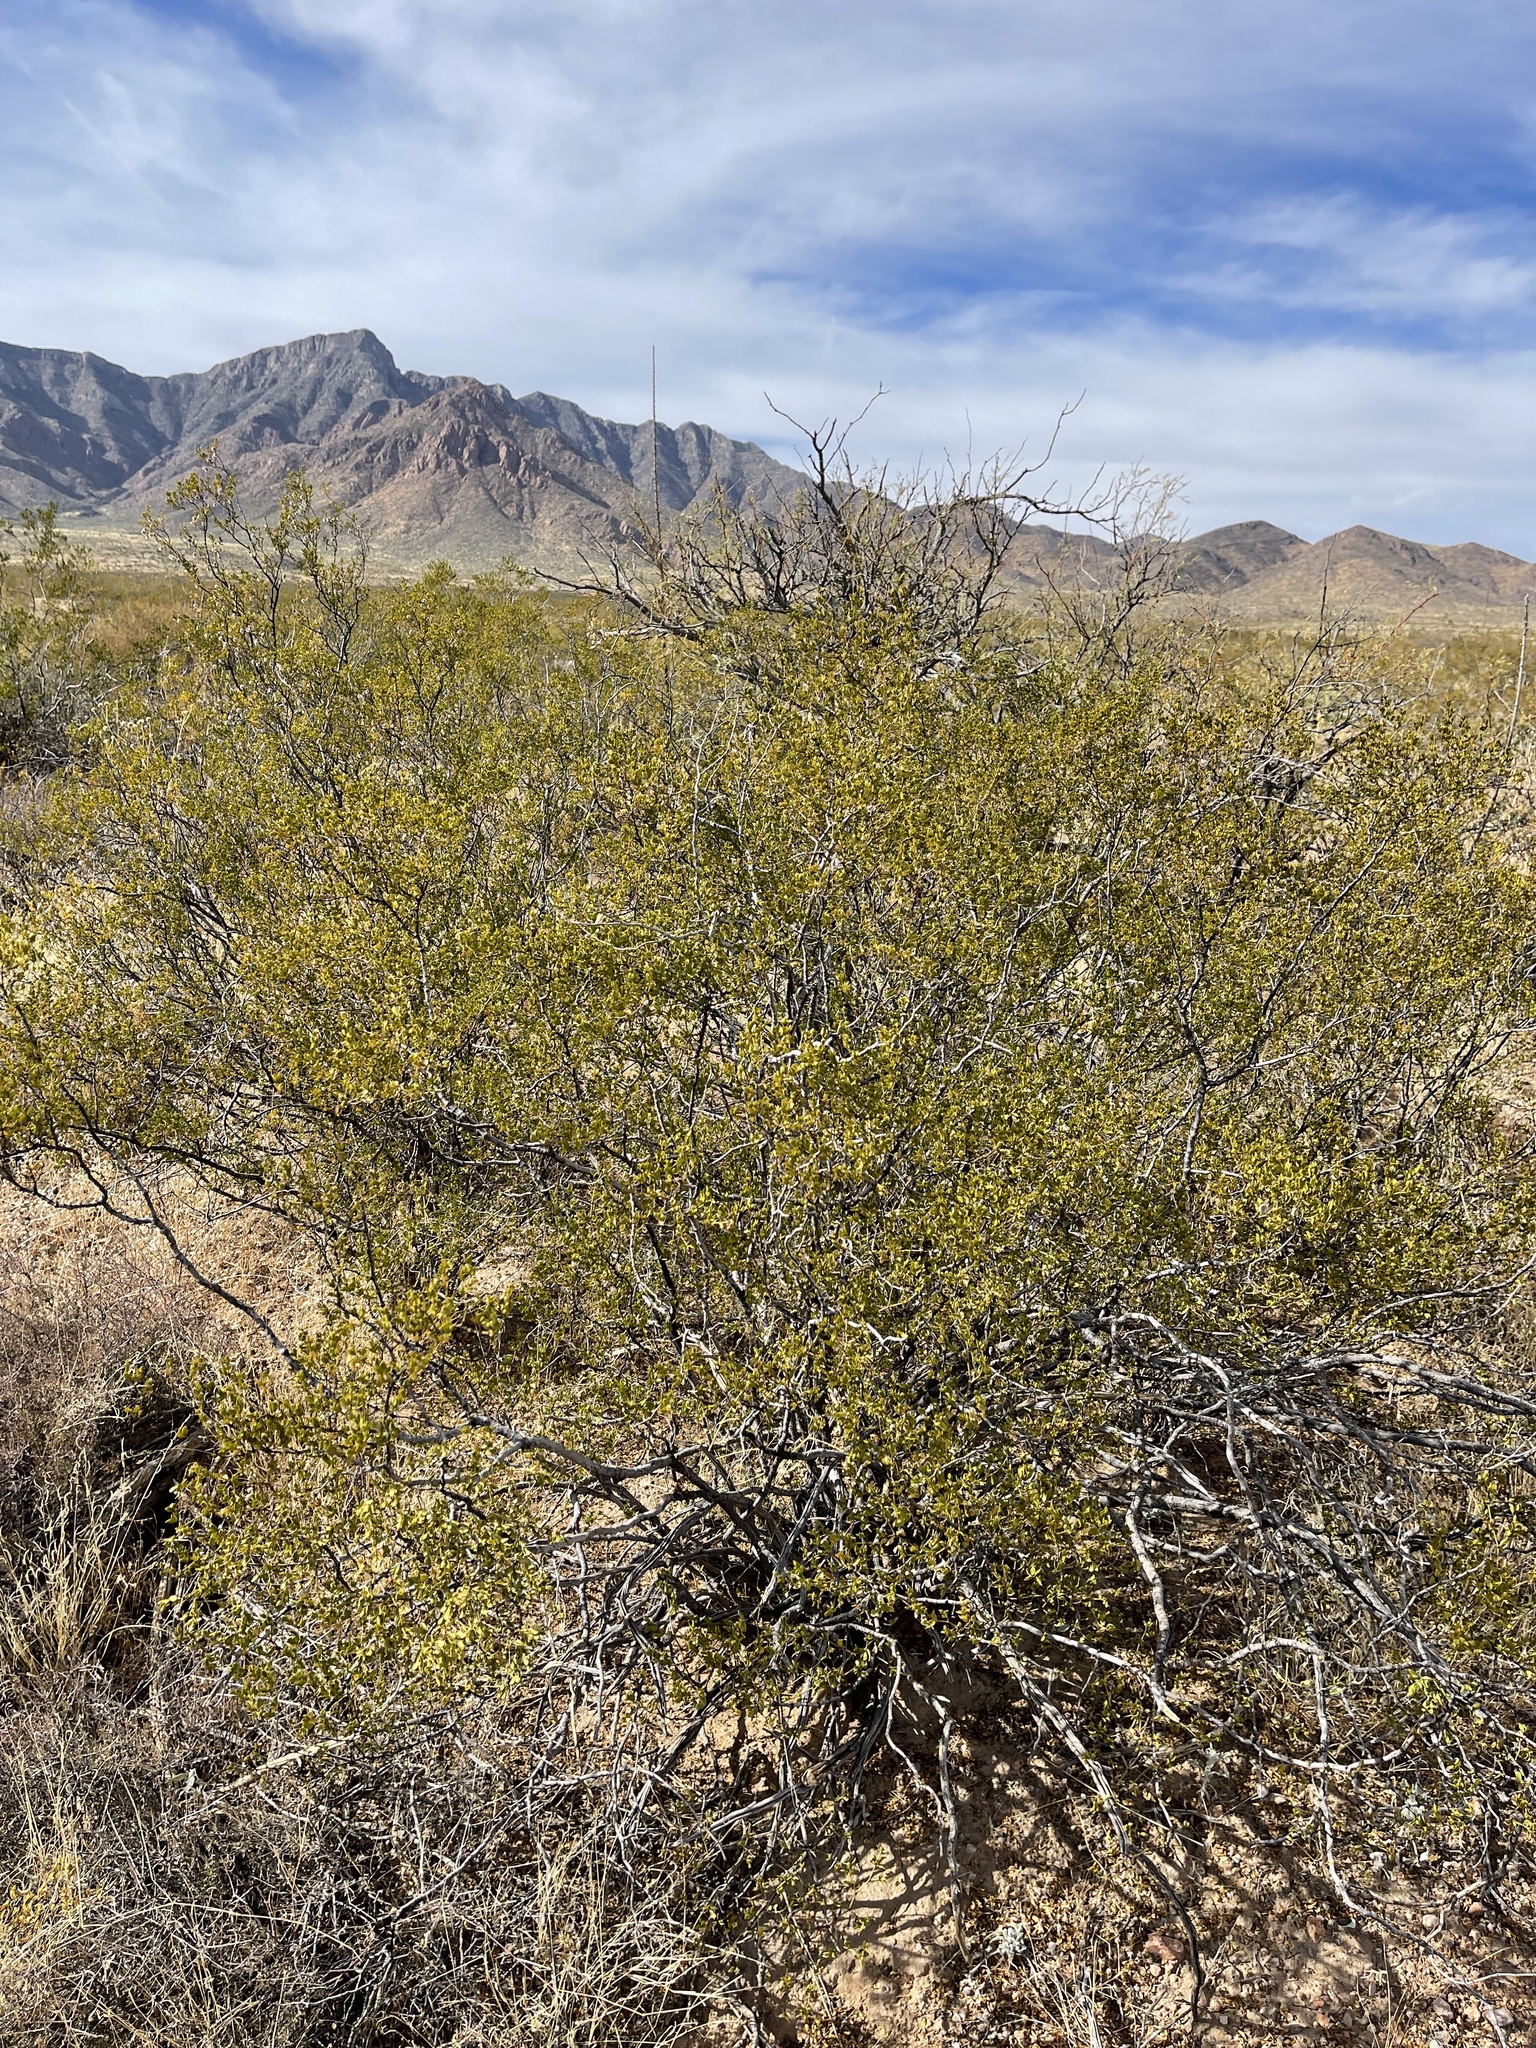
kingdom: Plantae
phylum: Tracheophyta
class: Magnoliopsida
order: Zygophyllales
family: Zygophyllaceae
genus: Larrea
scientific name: Larrea tridentata
